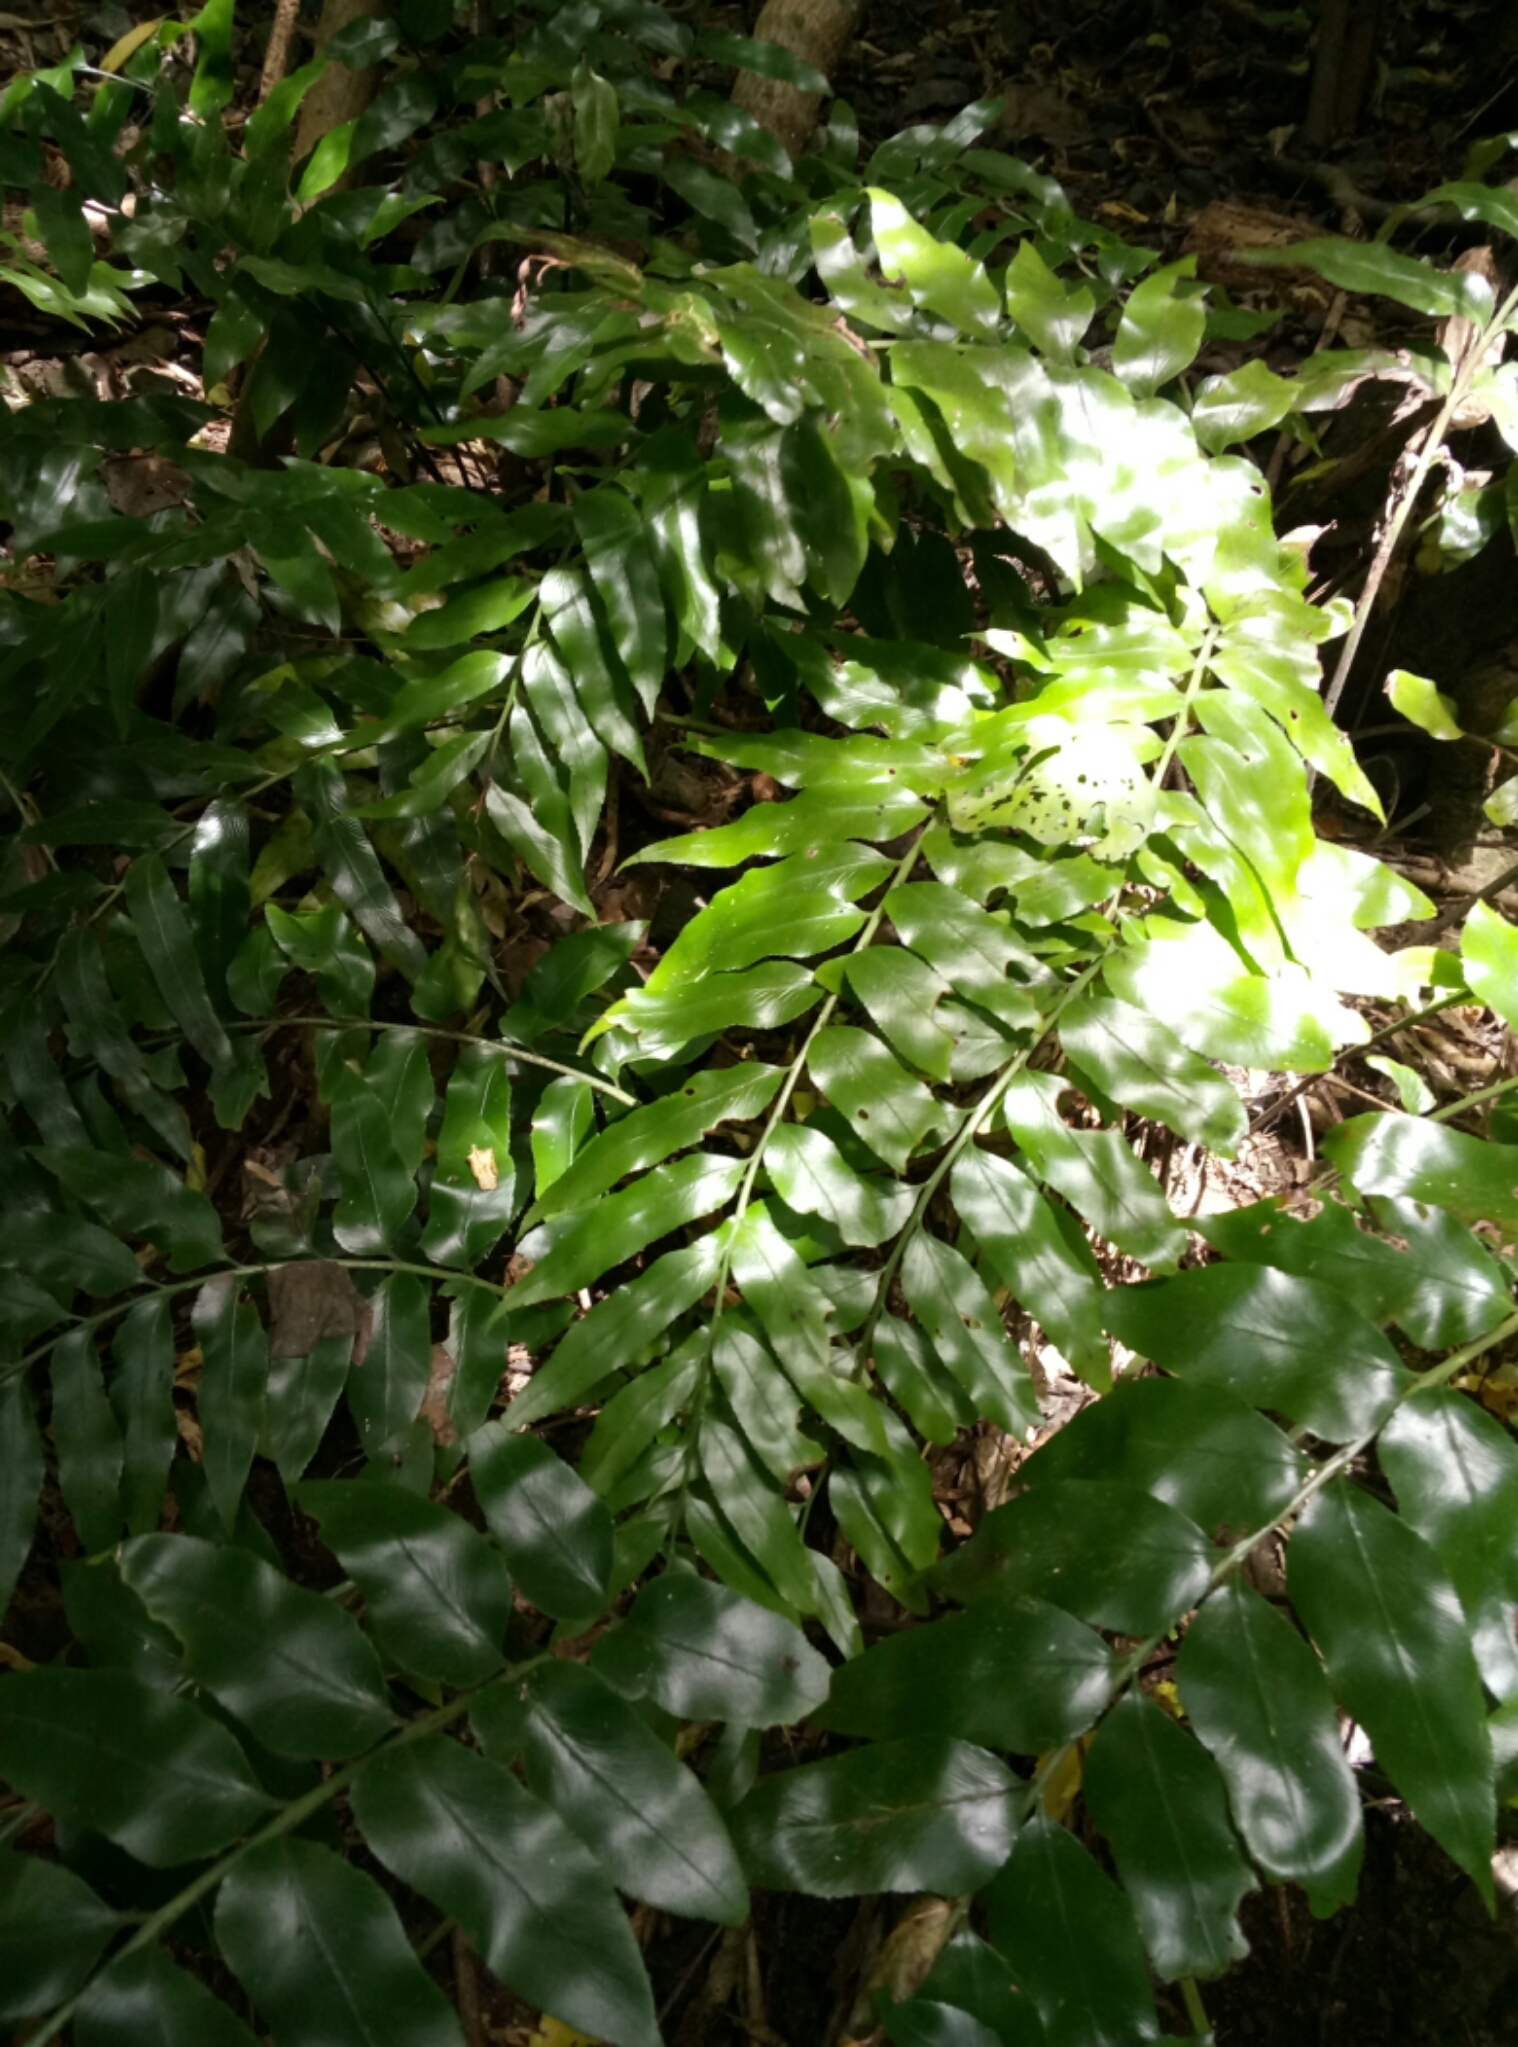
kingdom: Plantae
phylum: Tracheophyta
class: Polypodiopsida
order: Polypodiales
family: Aspleniaceae
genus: Asplenium
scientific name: Asplenium oblongifolium
